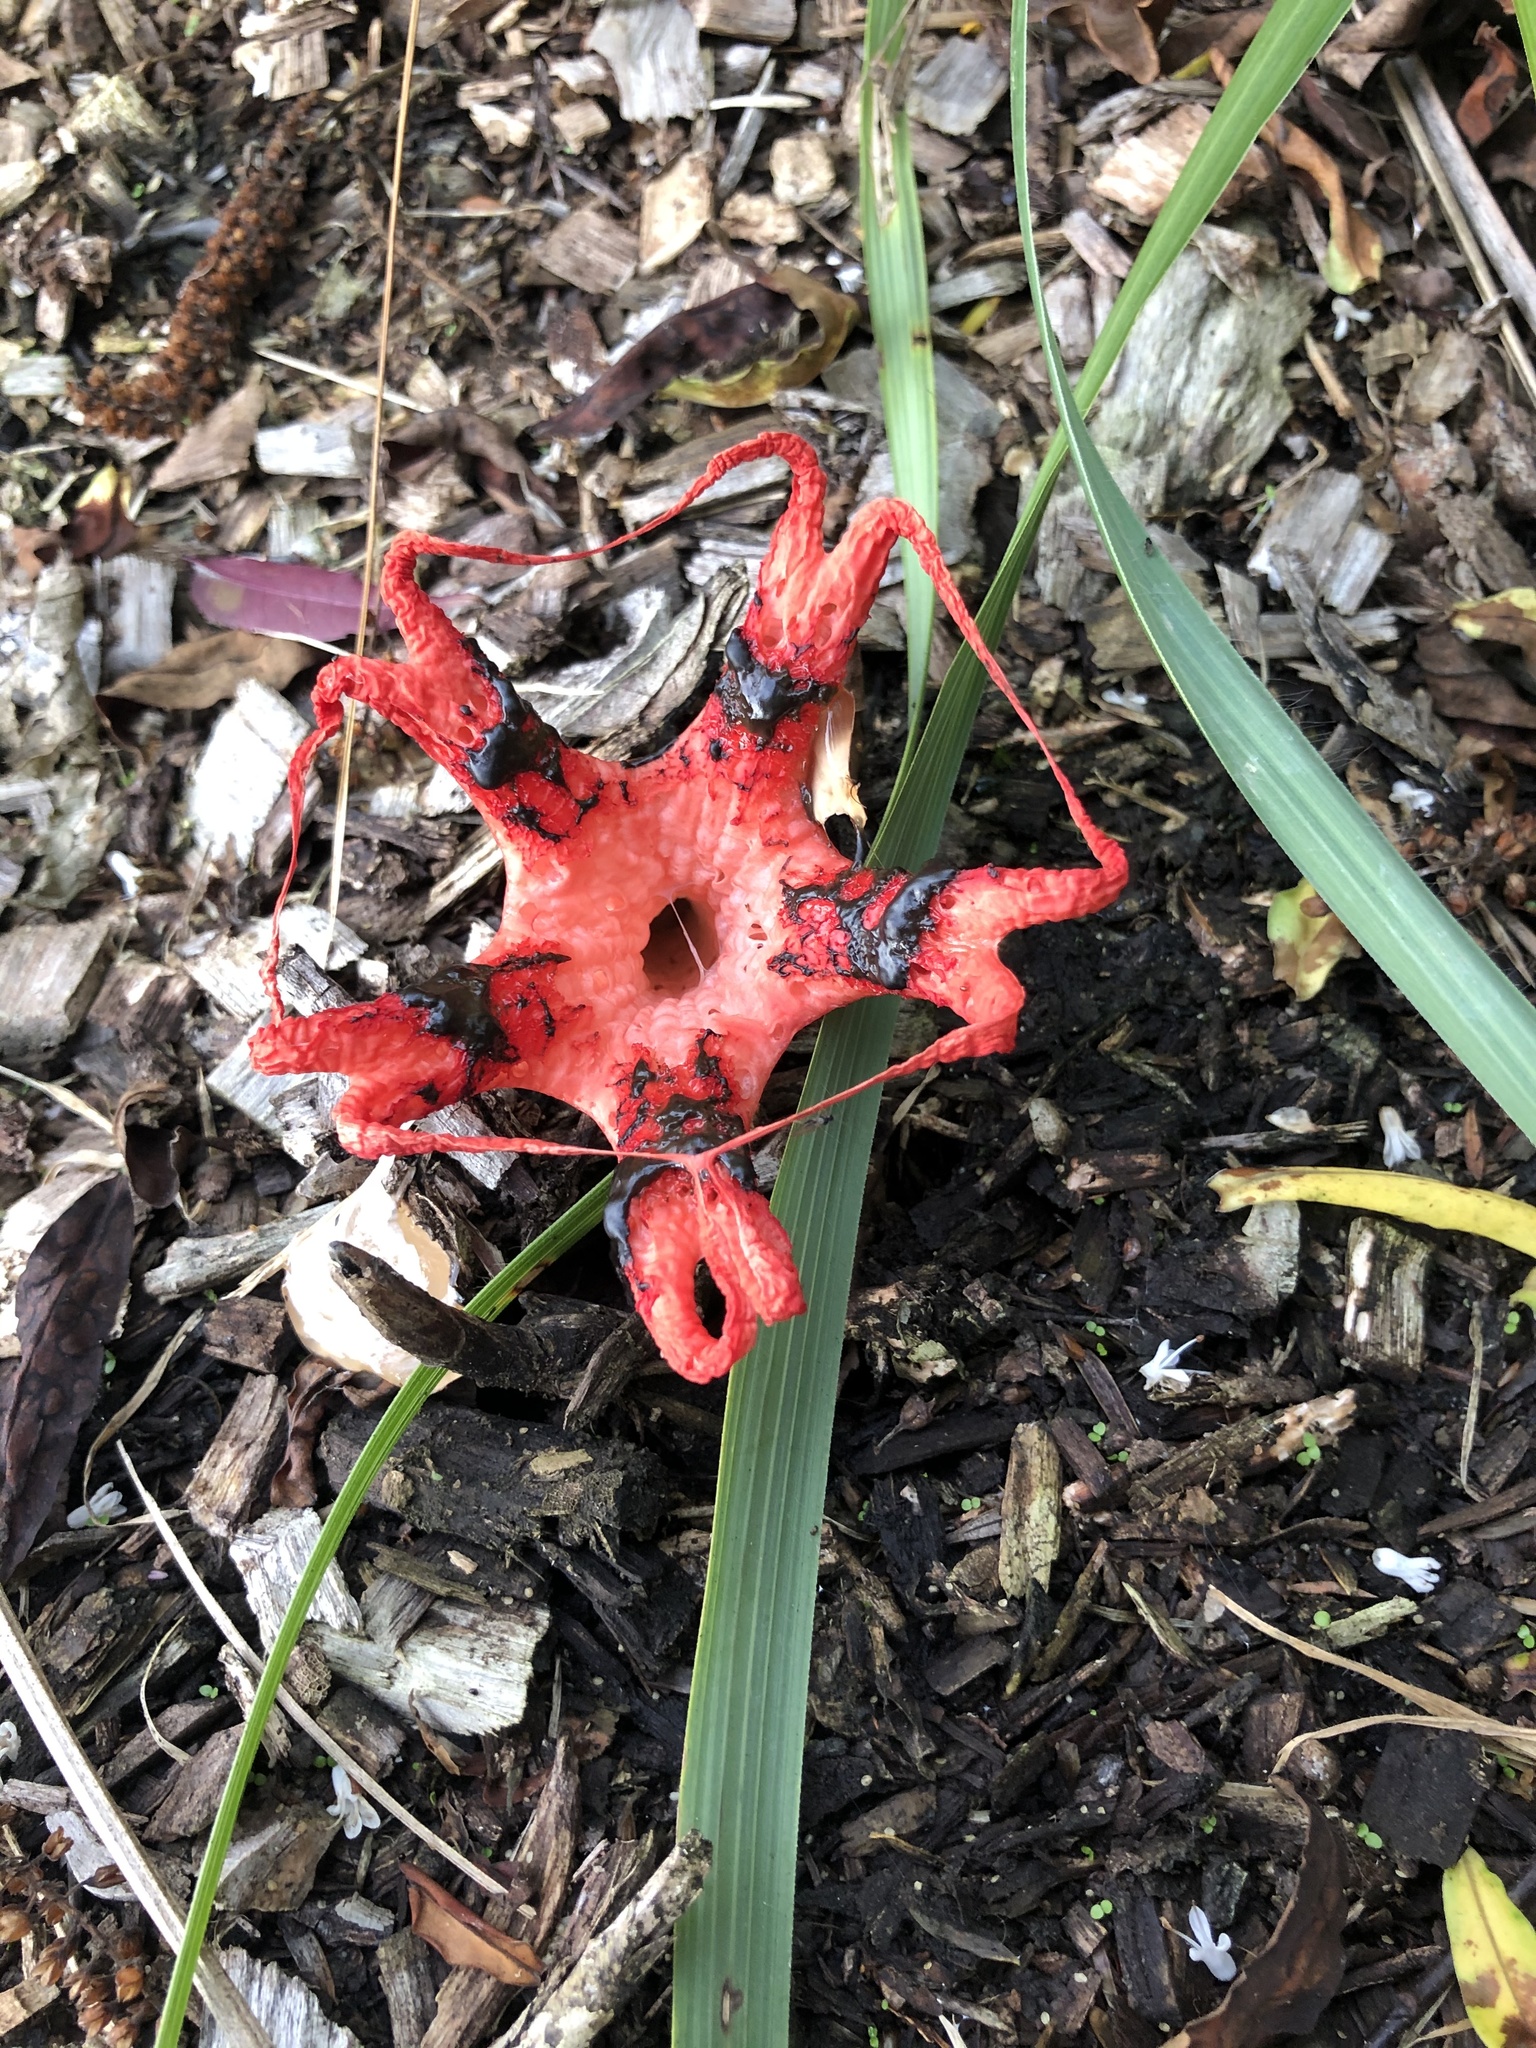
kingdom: Fungi
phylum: Basidiomycota
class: Agaricomycetes
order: Phallales
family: Phallaceae
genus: Clathrus
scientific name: Clathrus archeri
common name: Devil's fingers
